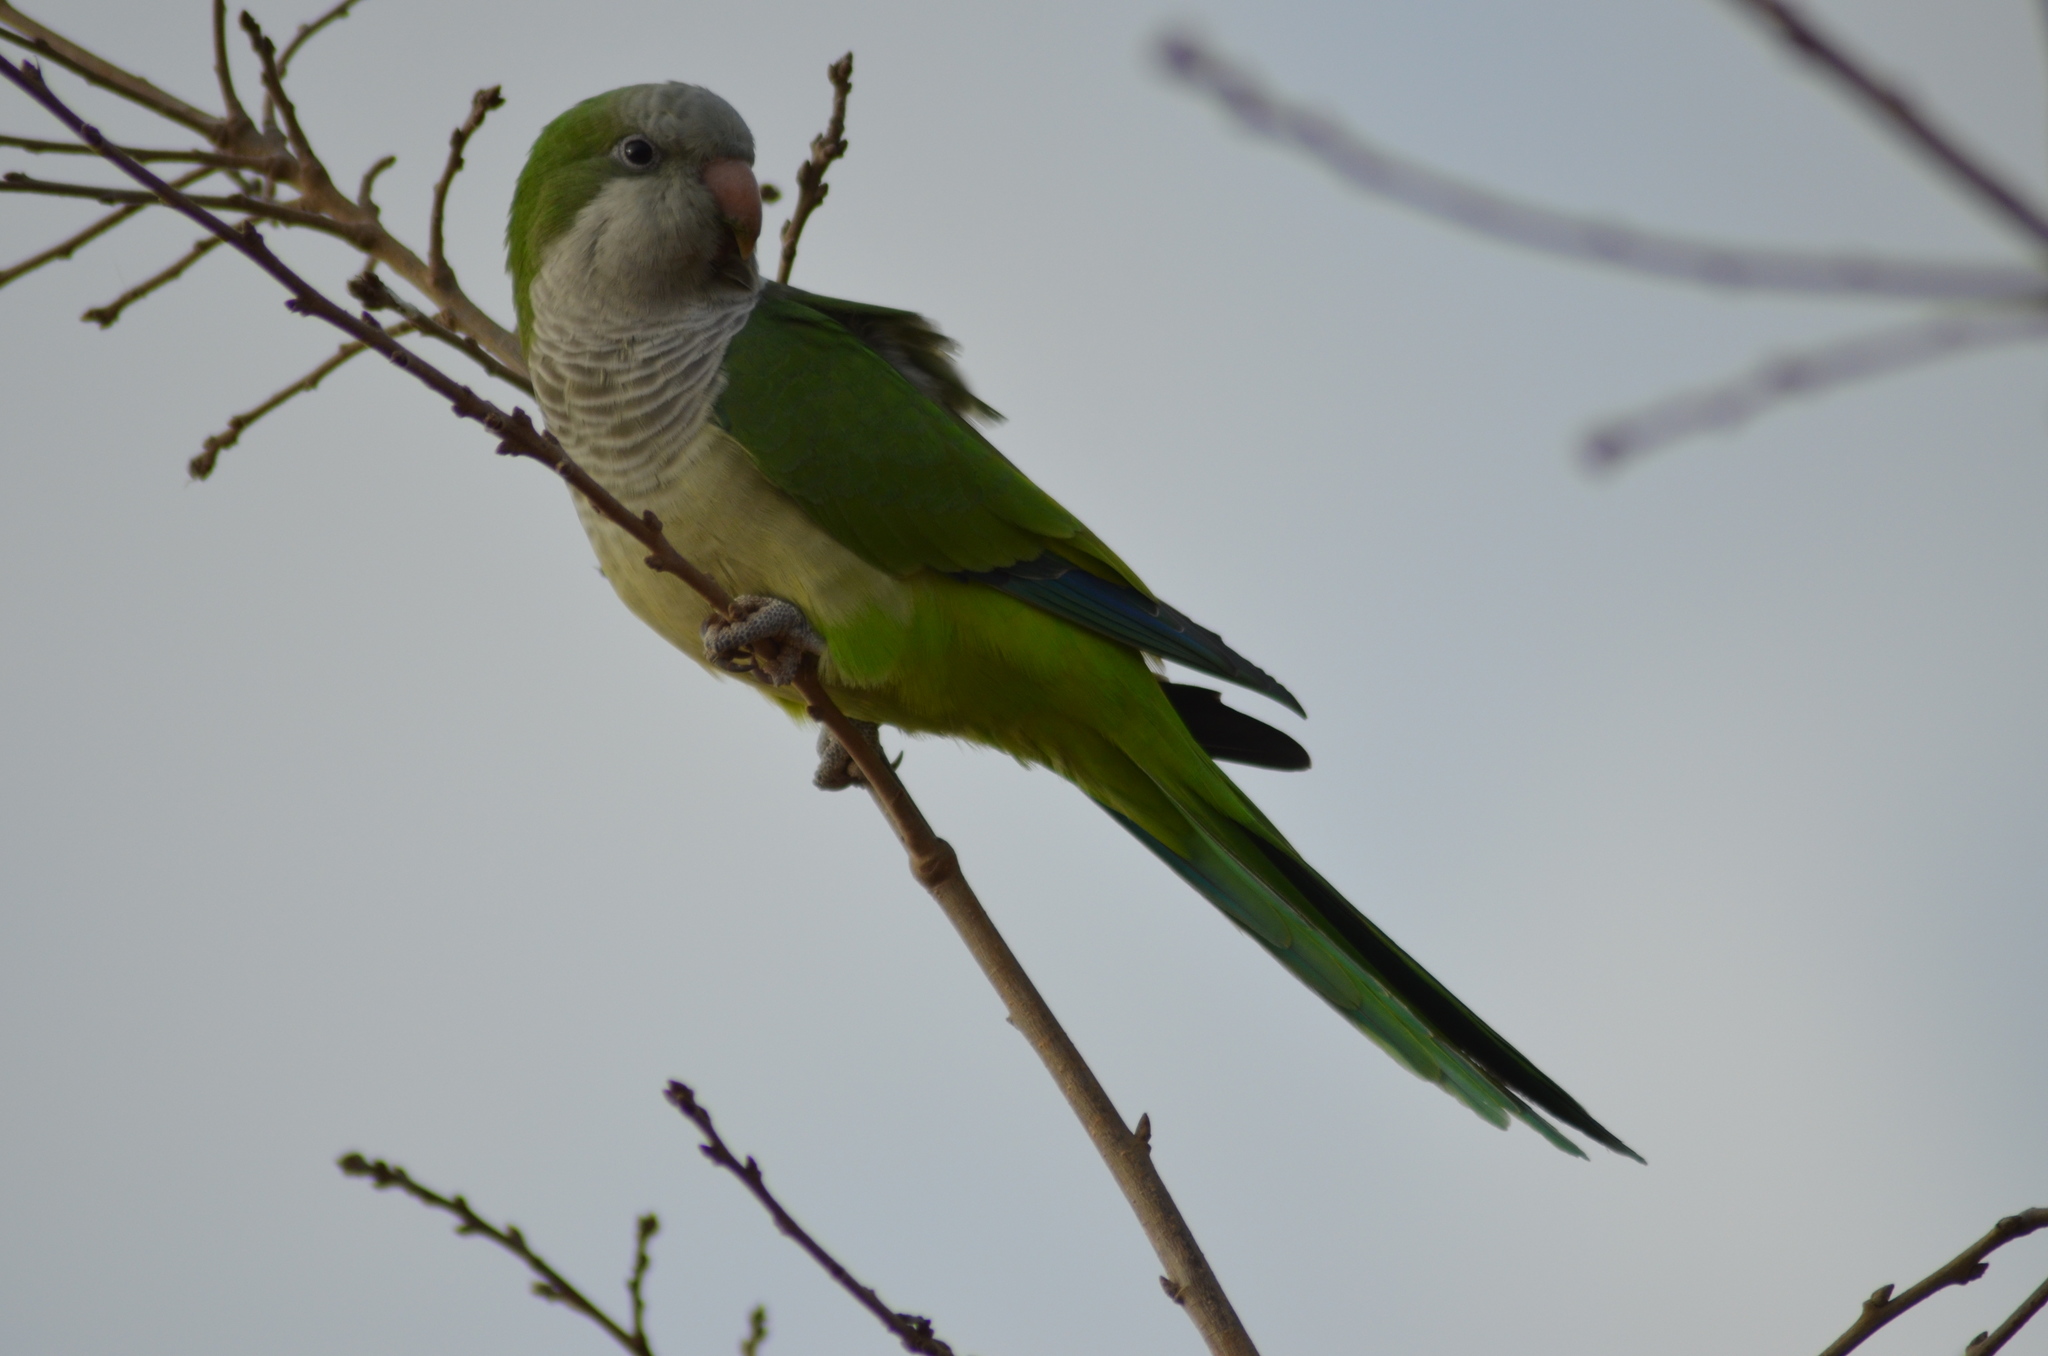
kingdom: Animalia
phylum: Chordata
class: Aves
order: Psittaciformes
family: Psittacidae
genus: Myiopsitta
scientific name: Myiopsitta monachus
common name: Monk parakeet
